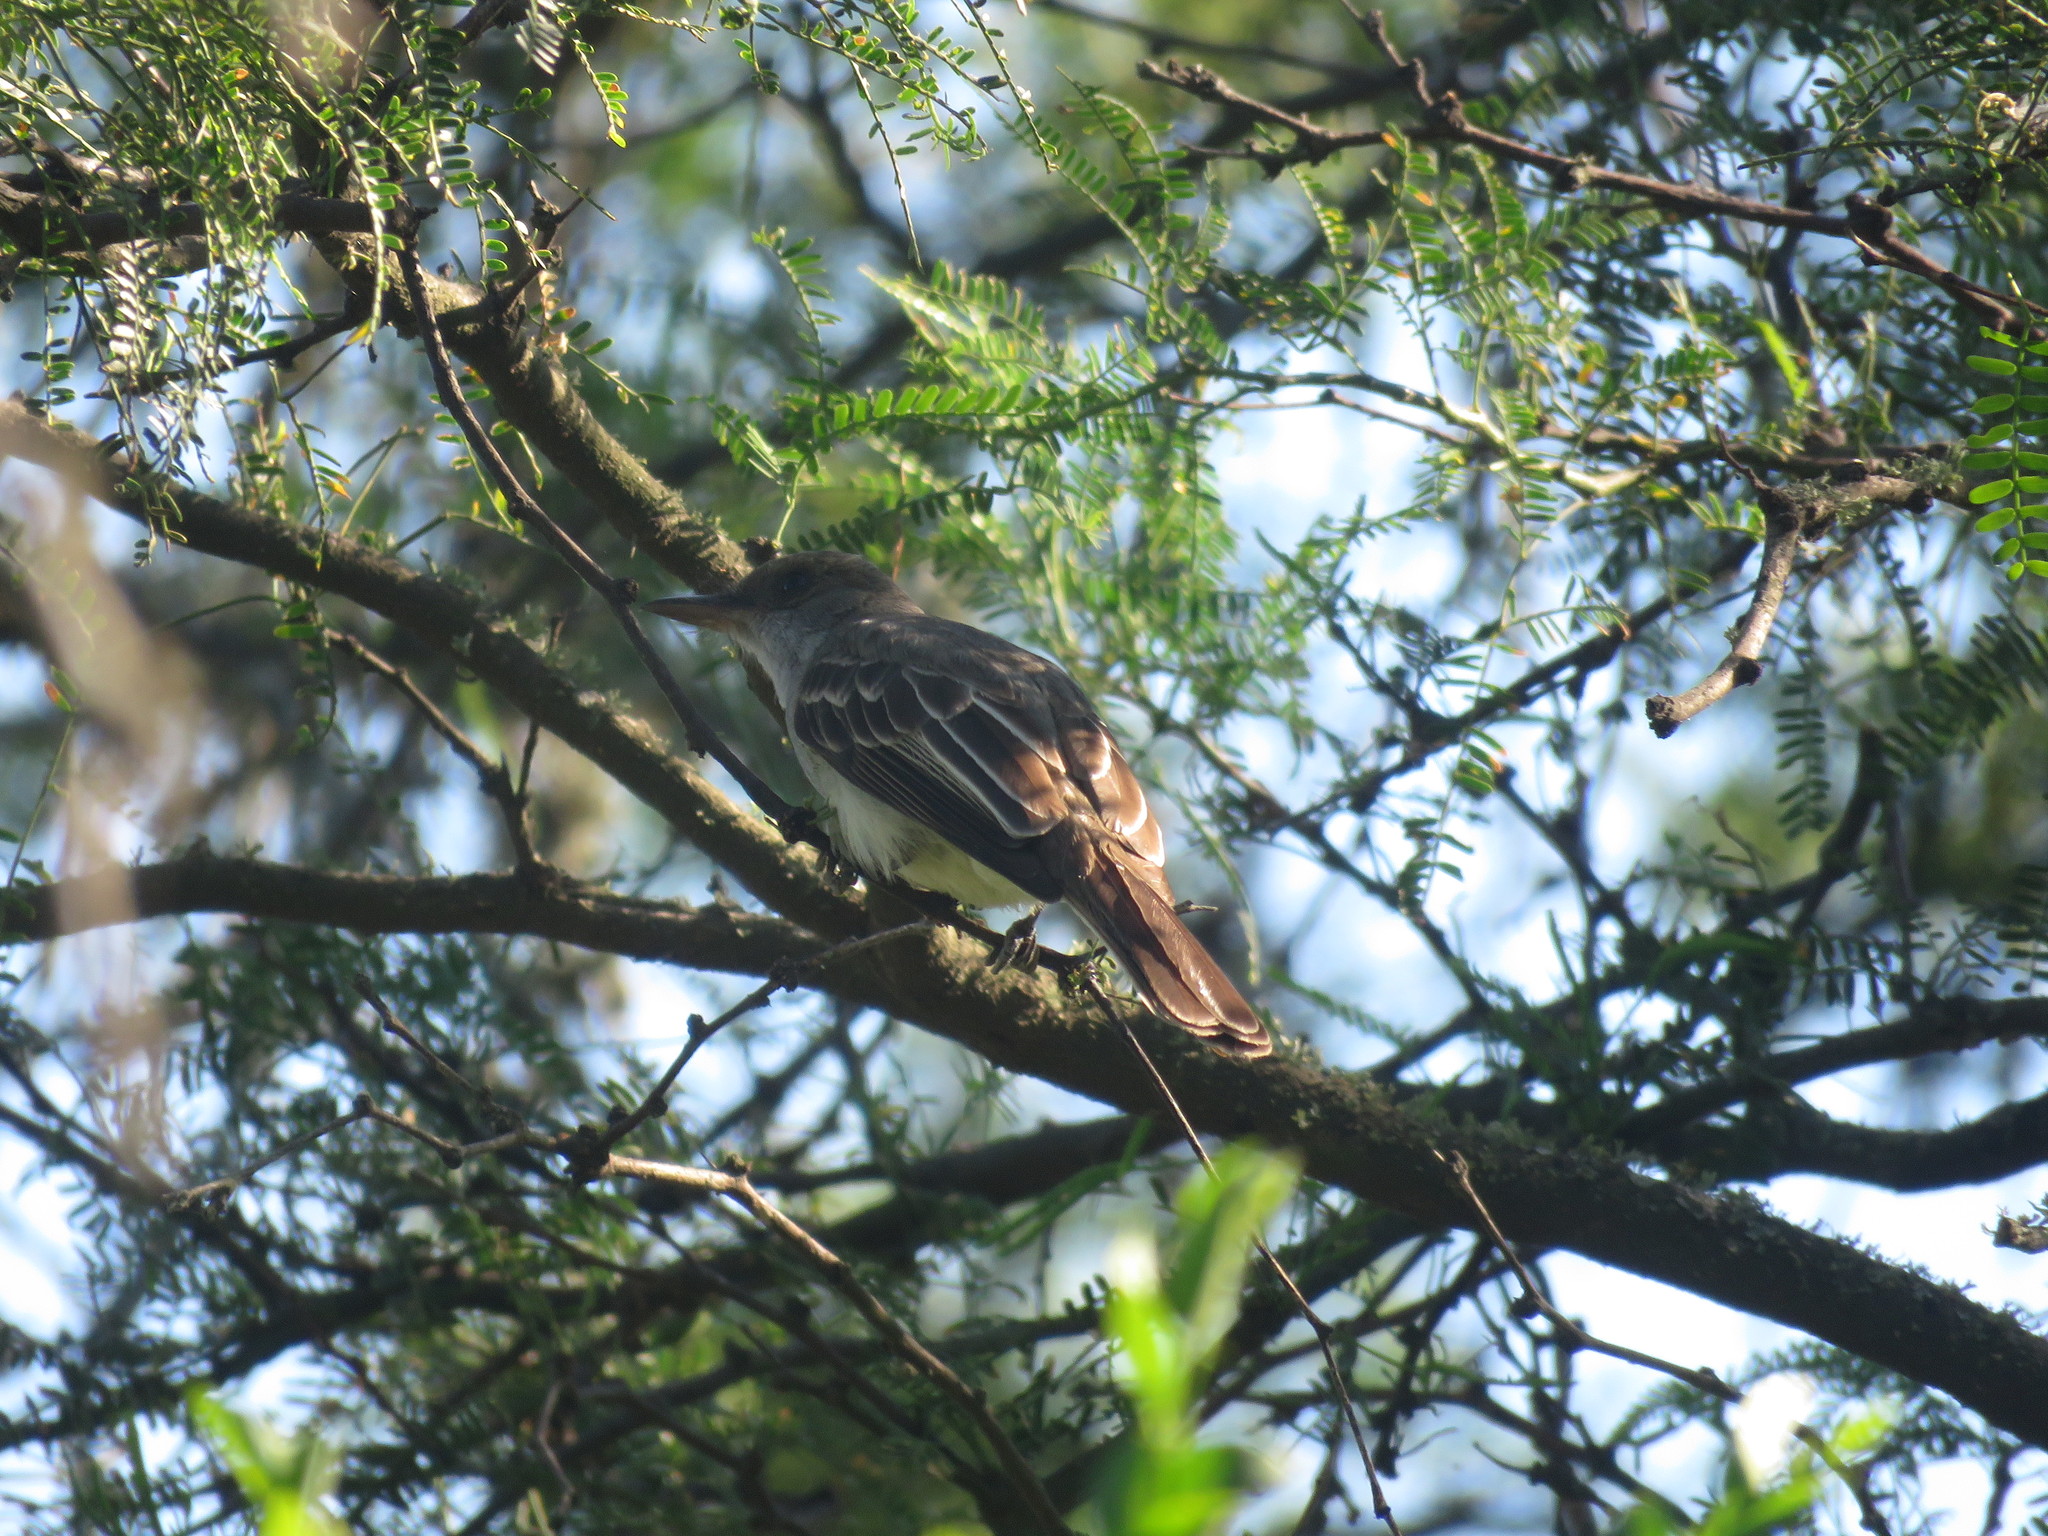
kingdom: Animalia
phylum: Chordata
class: Aves
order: Passeriformes
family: Tyrannidae
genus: Myiarchus
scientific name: Myiarchus swainsoni
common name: Swainson's flycatcher
